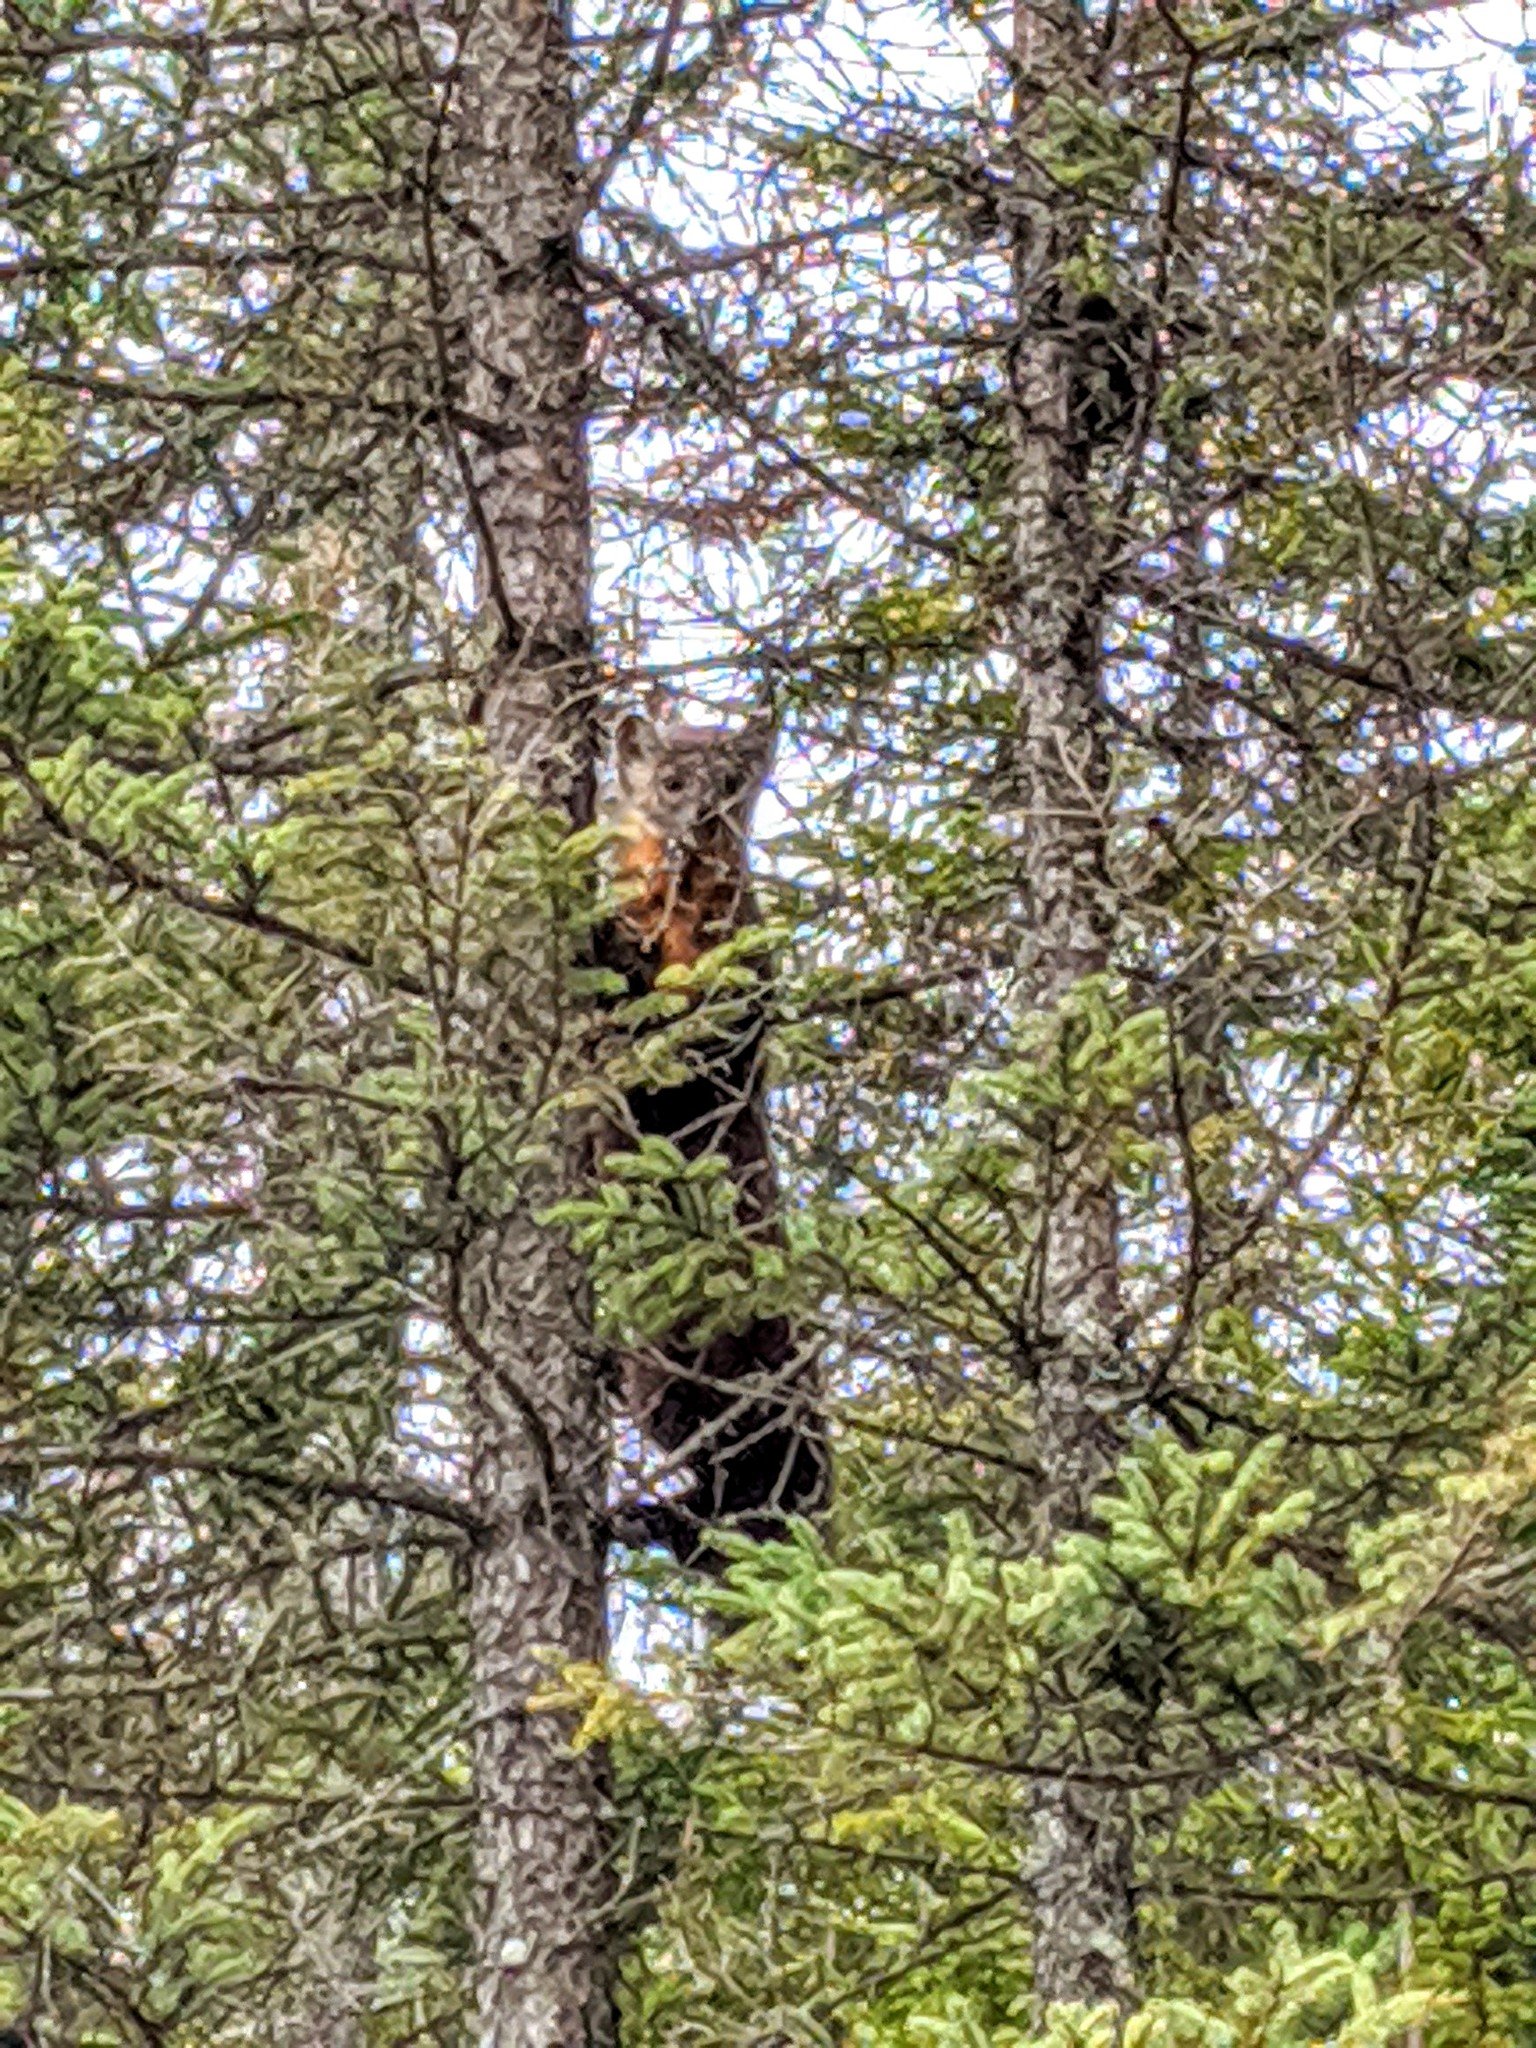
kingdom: Animalia
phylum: Chordata
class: Mammalia
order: Carnivora
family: Mustelidae
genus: Martes
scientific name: Martes americana
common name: American marten
